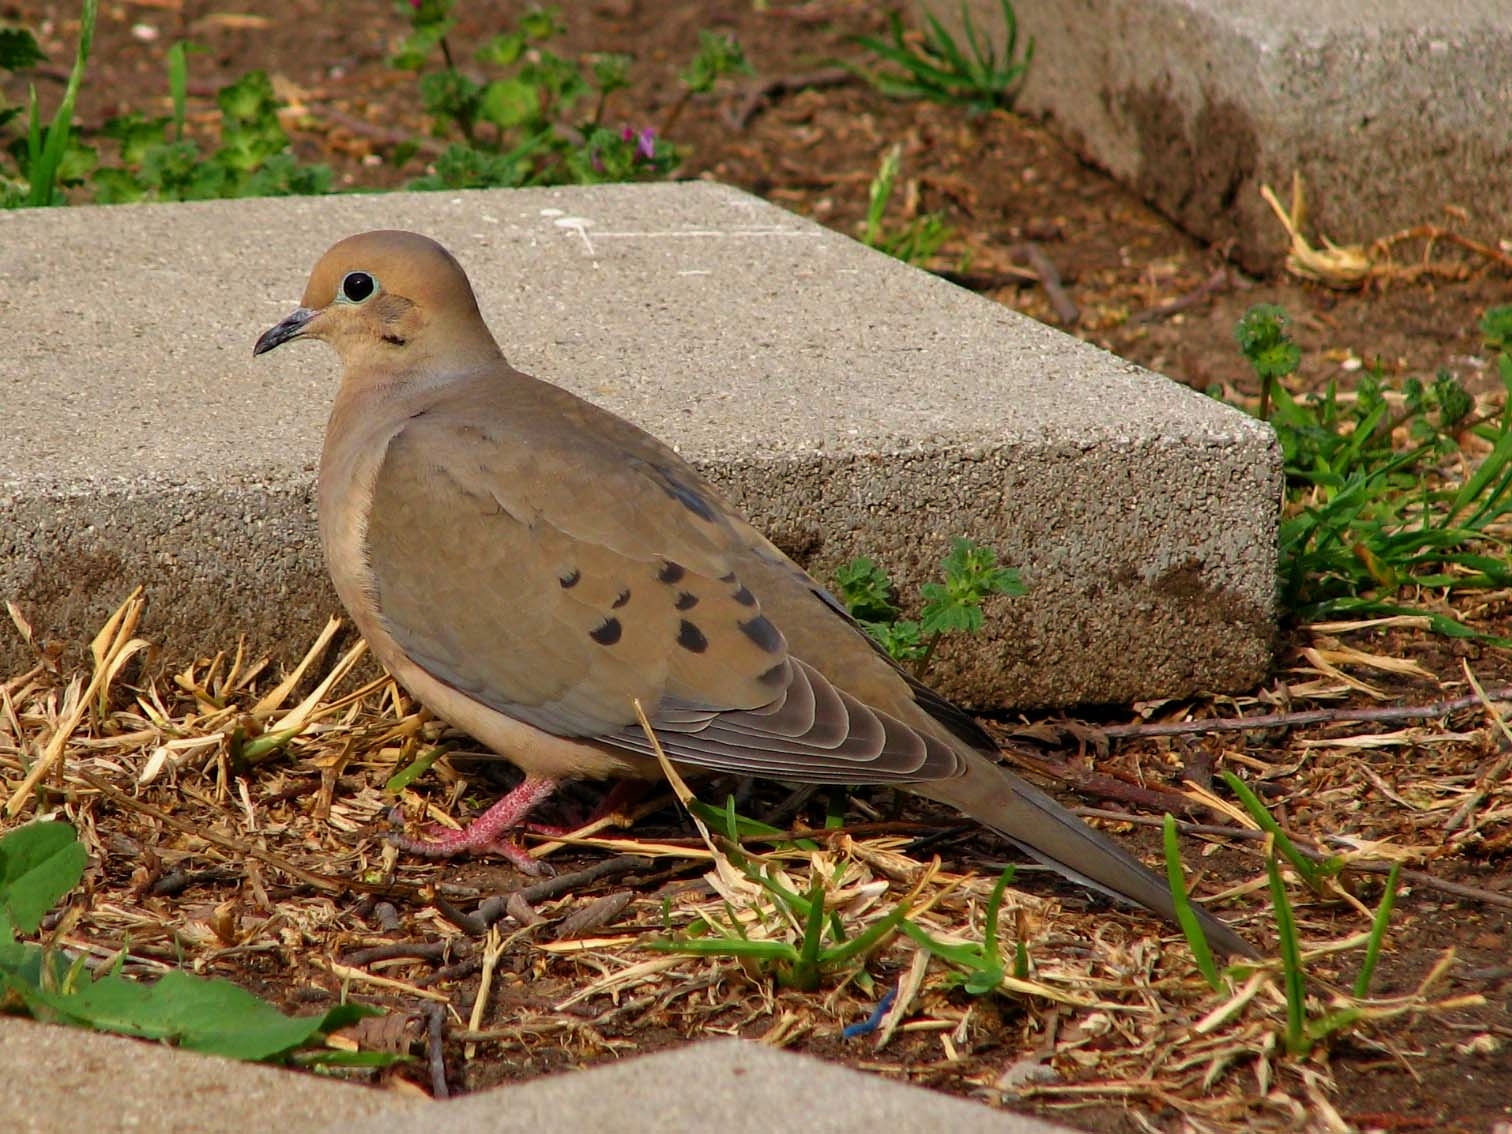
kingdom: Animalia
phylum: Chordata
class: Aves
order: Columbiformes
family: Columbidae
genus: Zenaida
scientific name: Zenaida macroura
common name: Mourning dove
